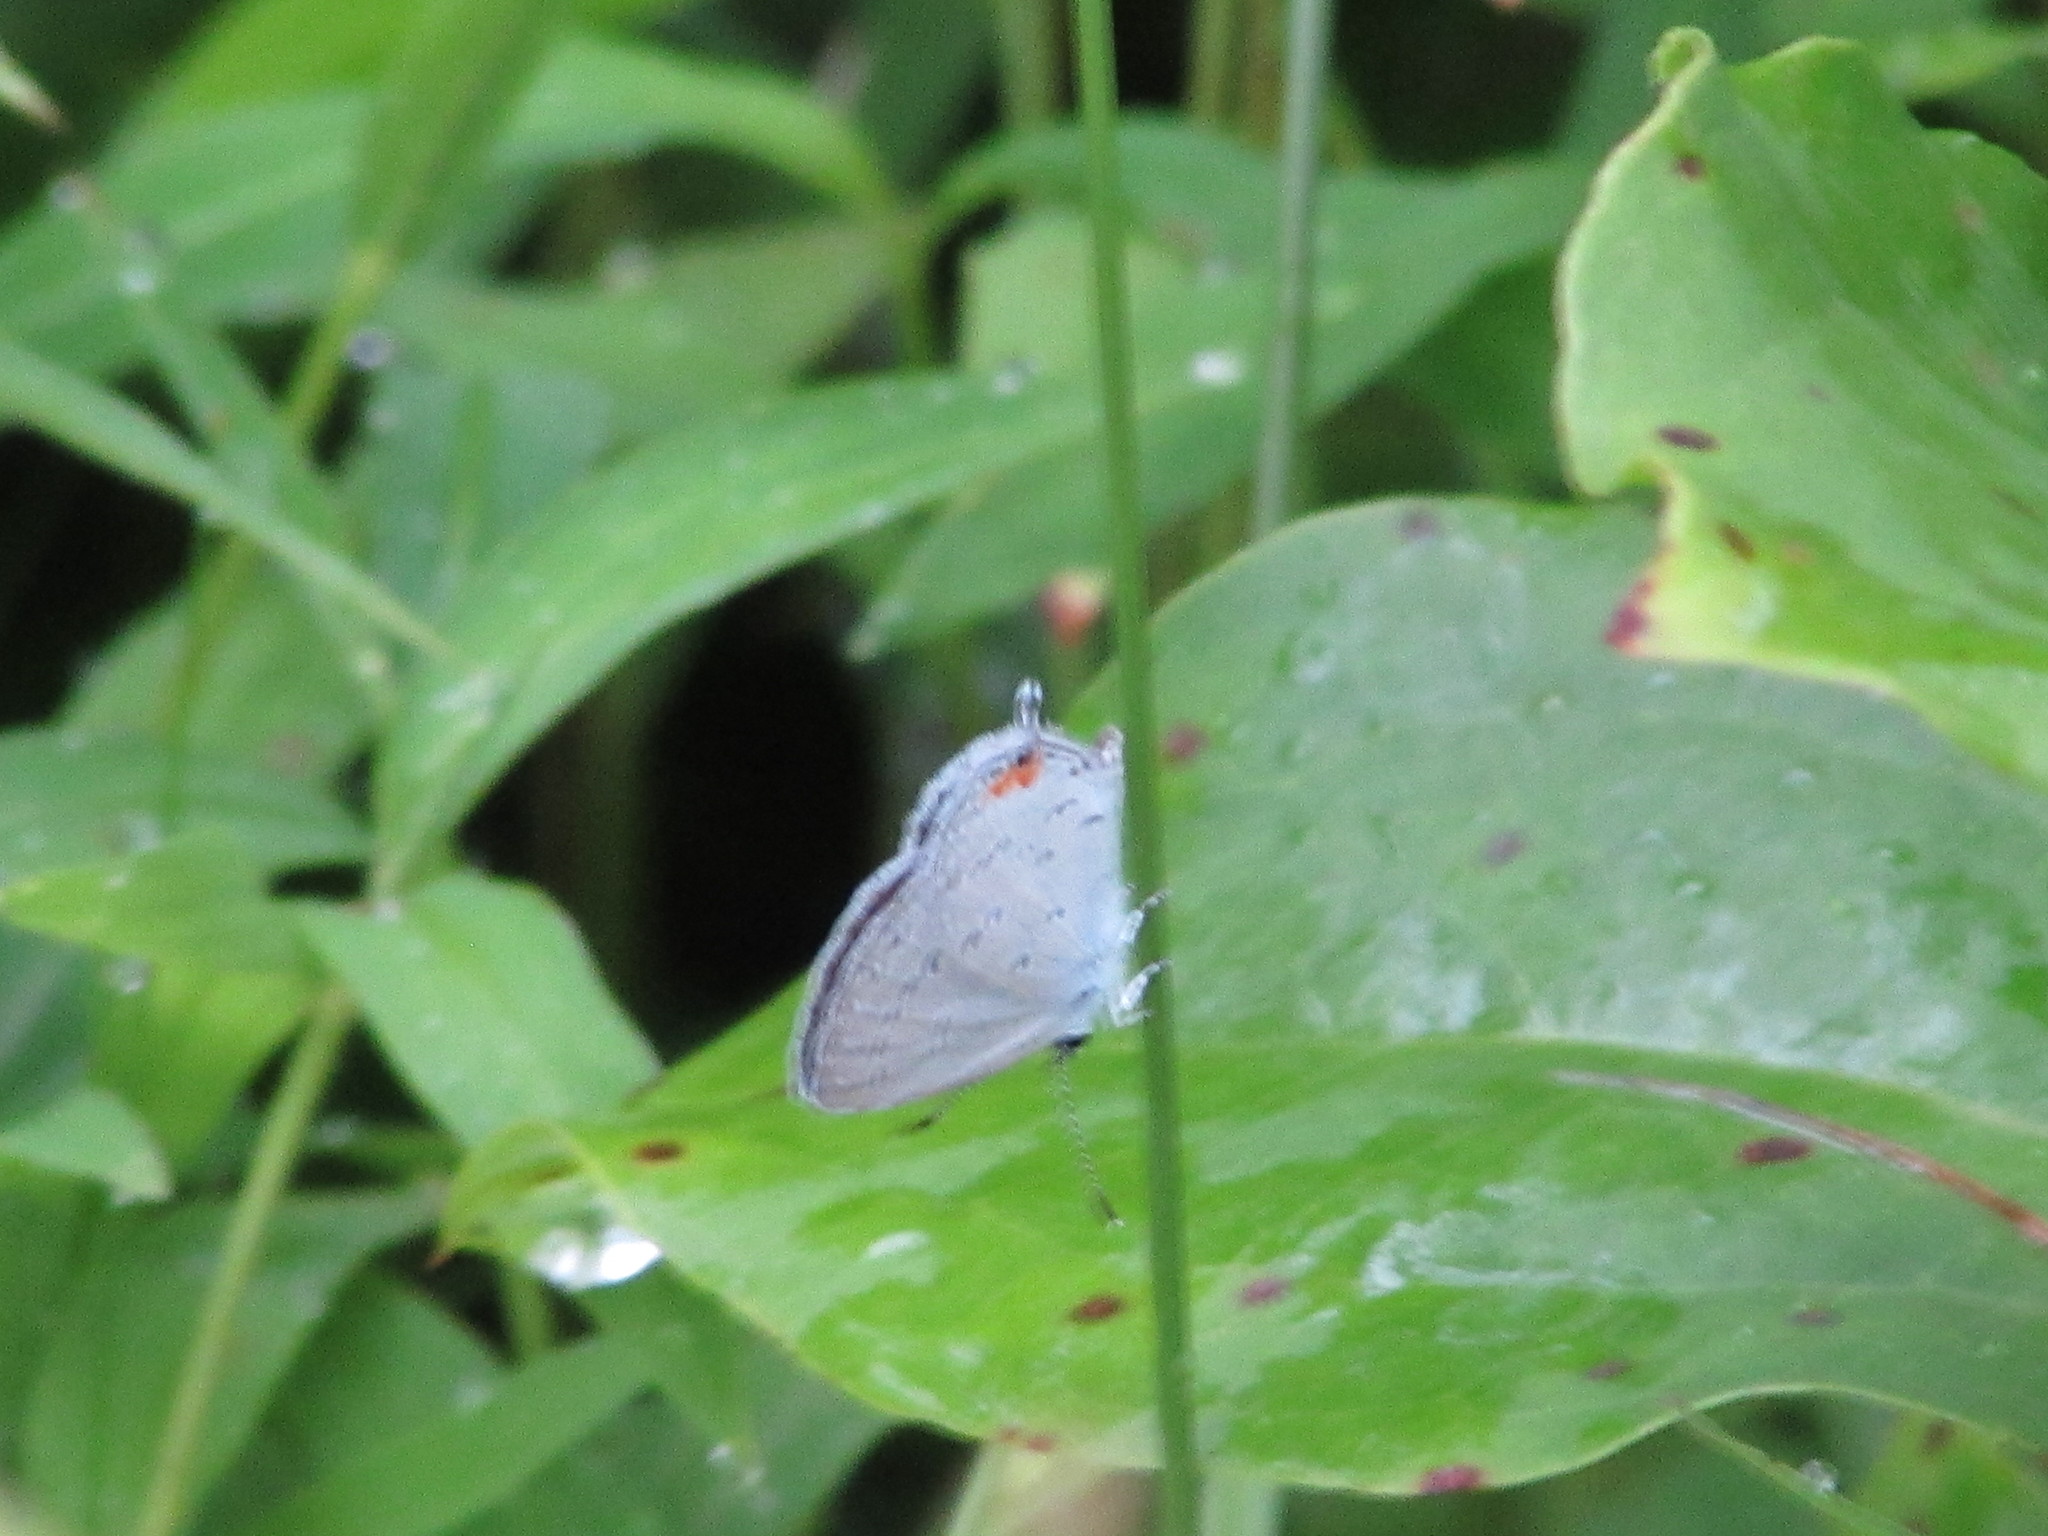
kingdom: Animalia
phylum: Arthropoda
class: Insecta
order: Lepidoptera
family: Lycaenidae
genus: Elkalyce
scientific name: Elkalyce comyntas
